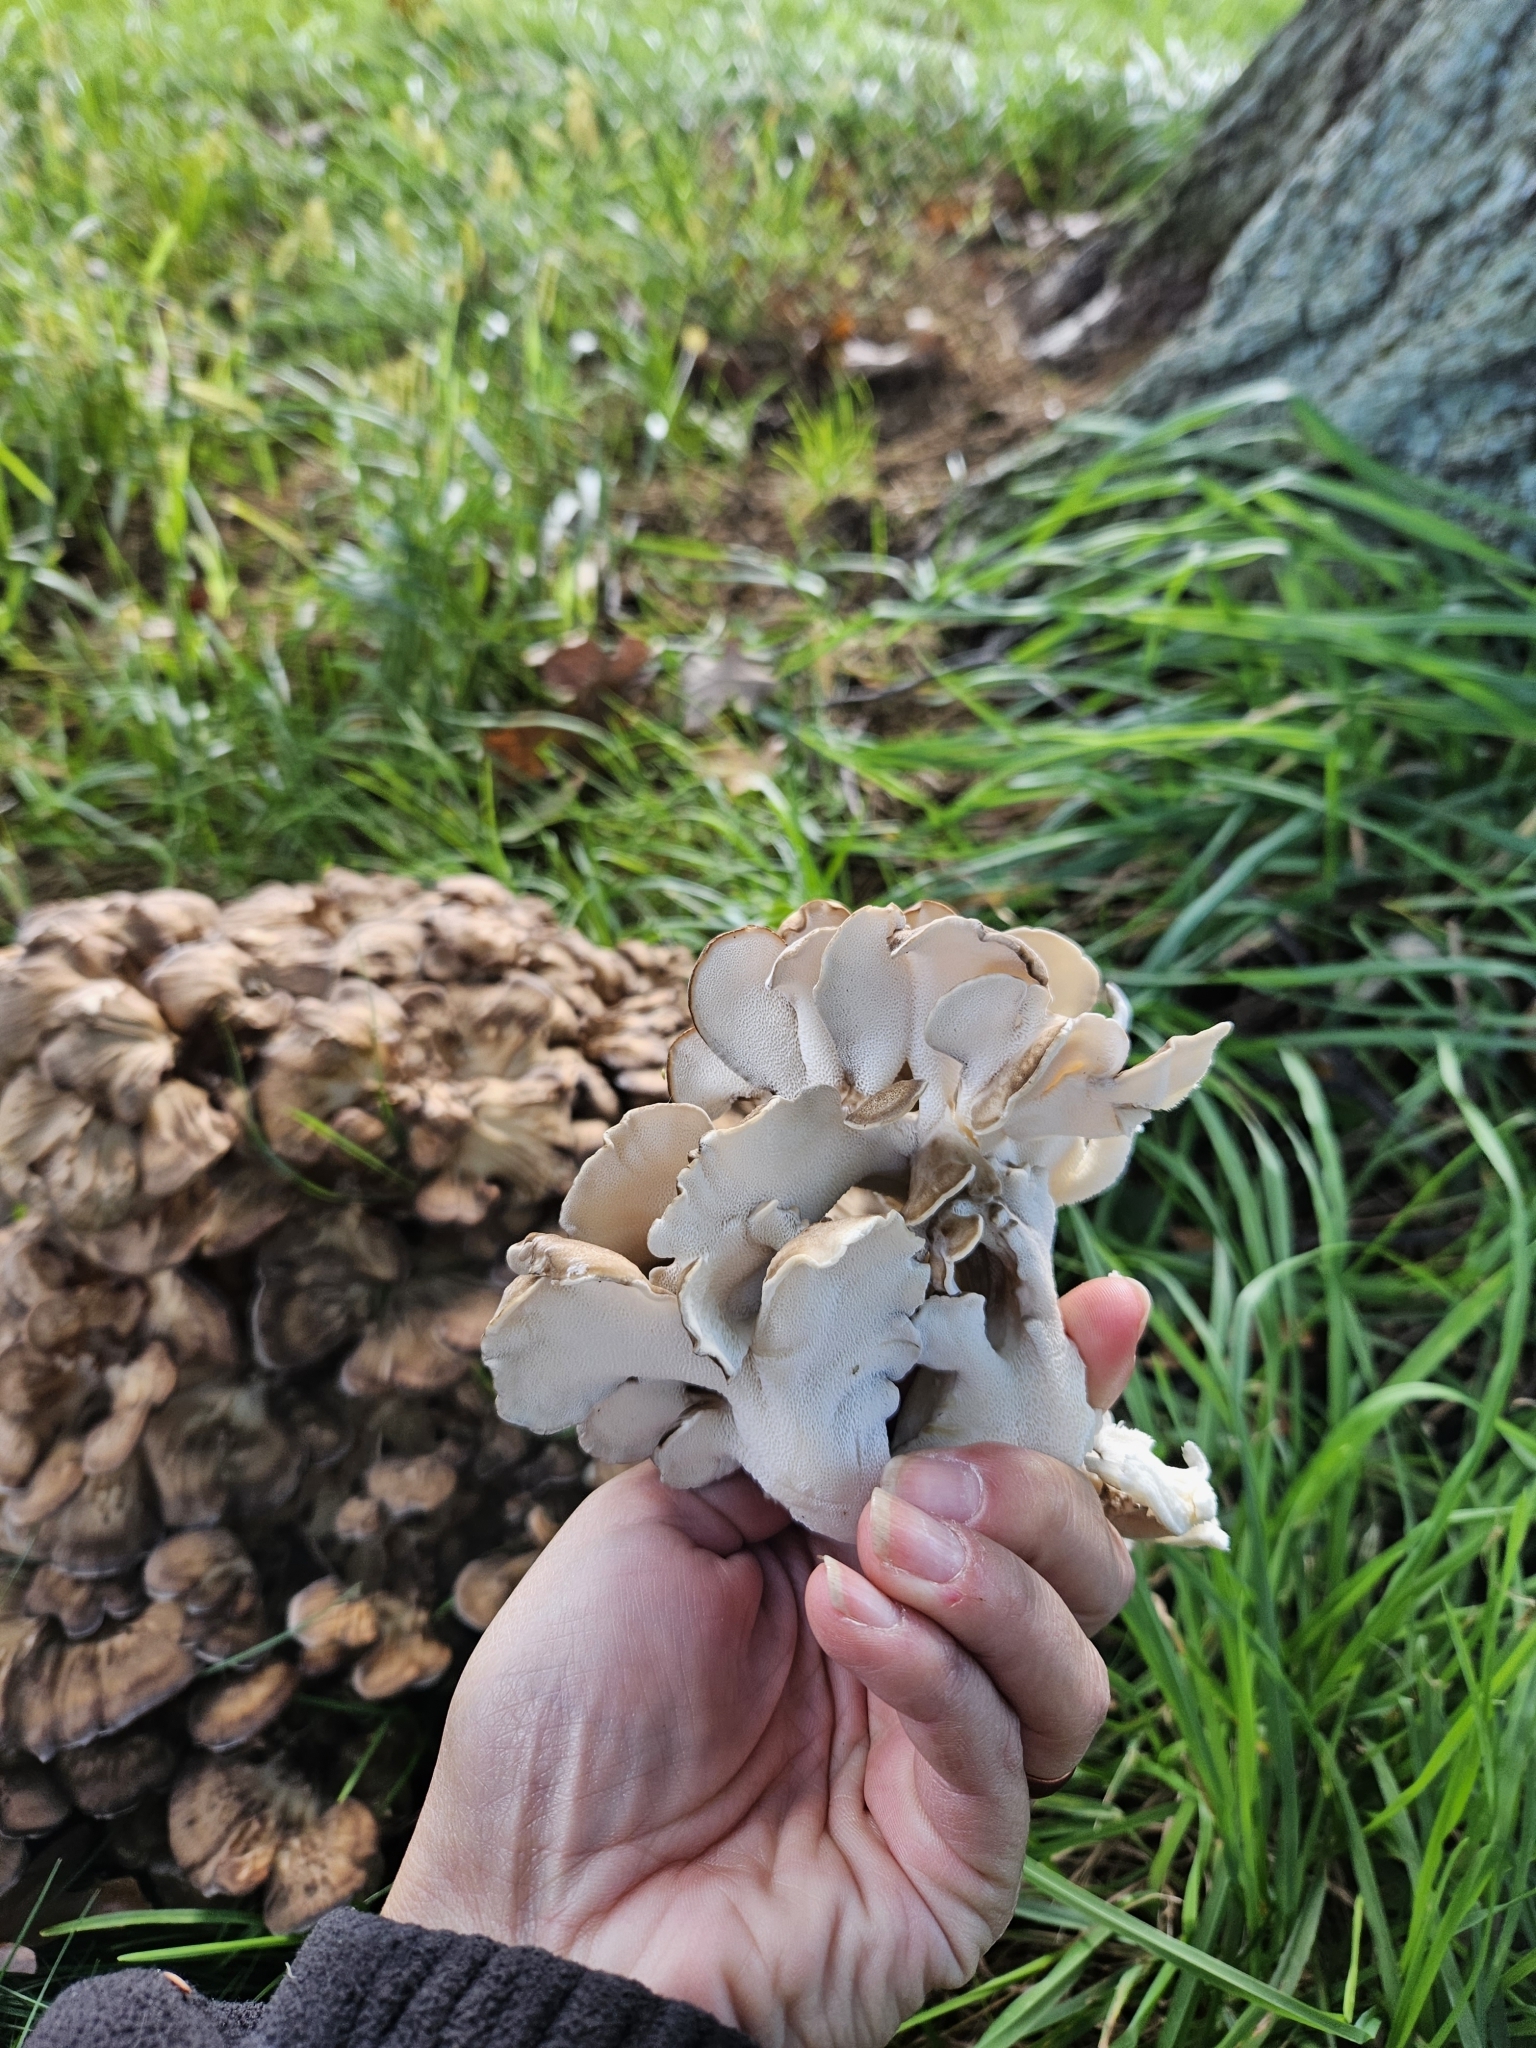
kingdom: Fungi
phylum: Basidiomycota
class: Agaricomycetes
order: Polyporales
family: Grifolaceae
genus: Grifola
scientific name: Grifola frondosa
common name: Hen of the woods
